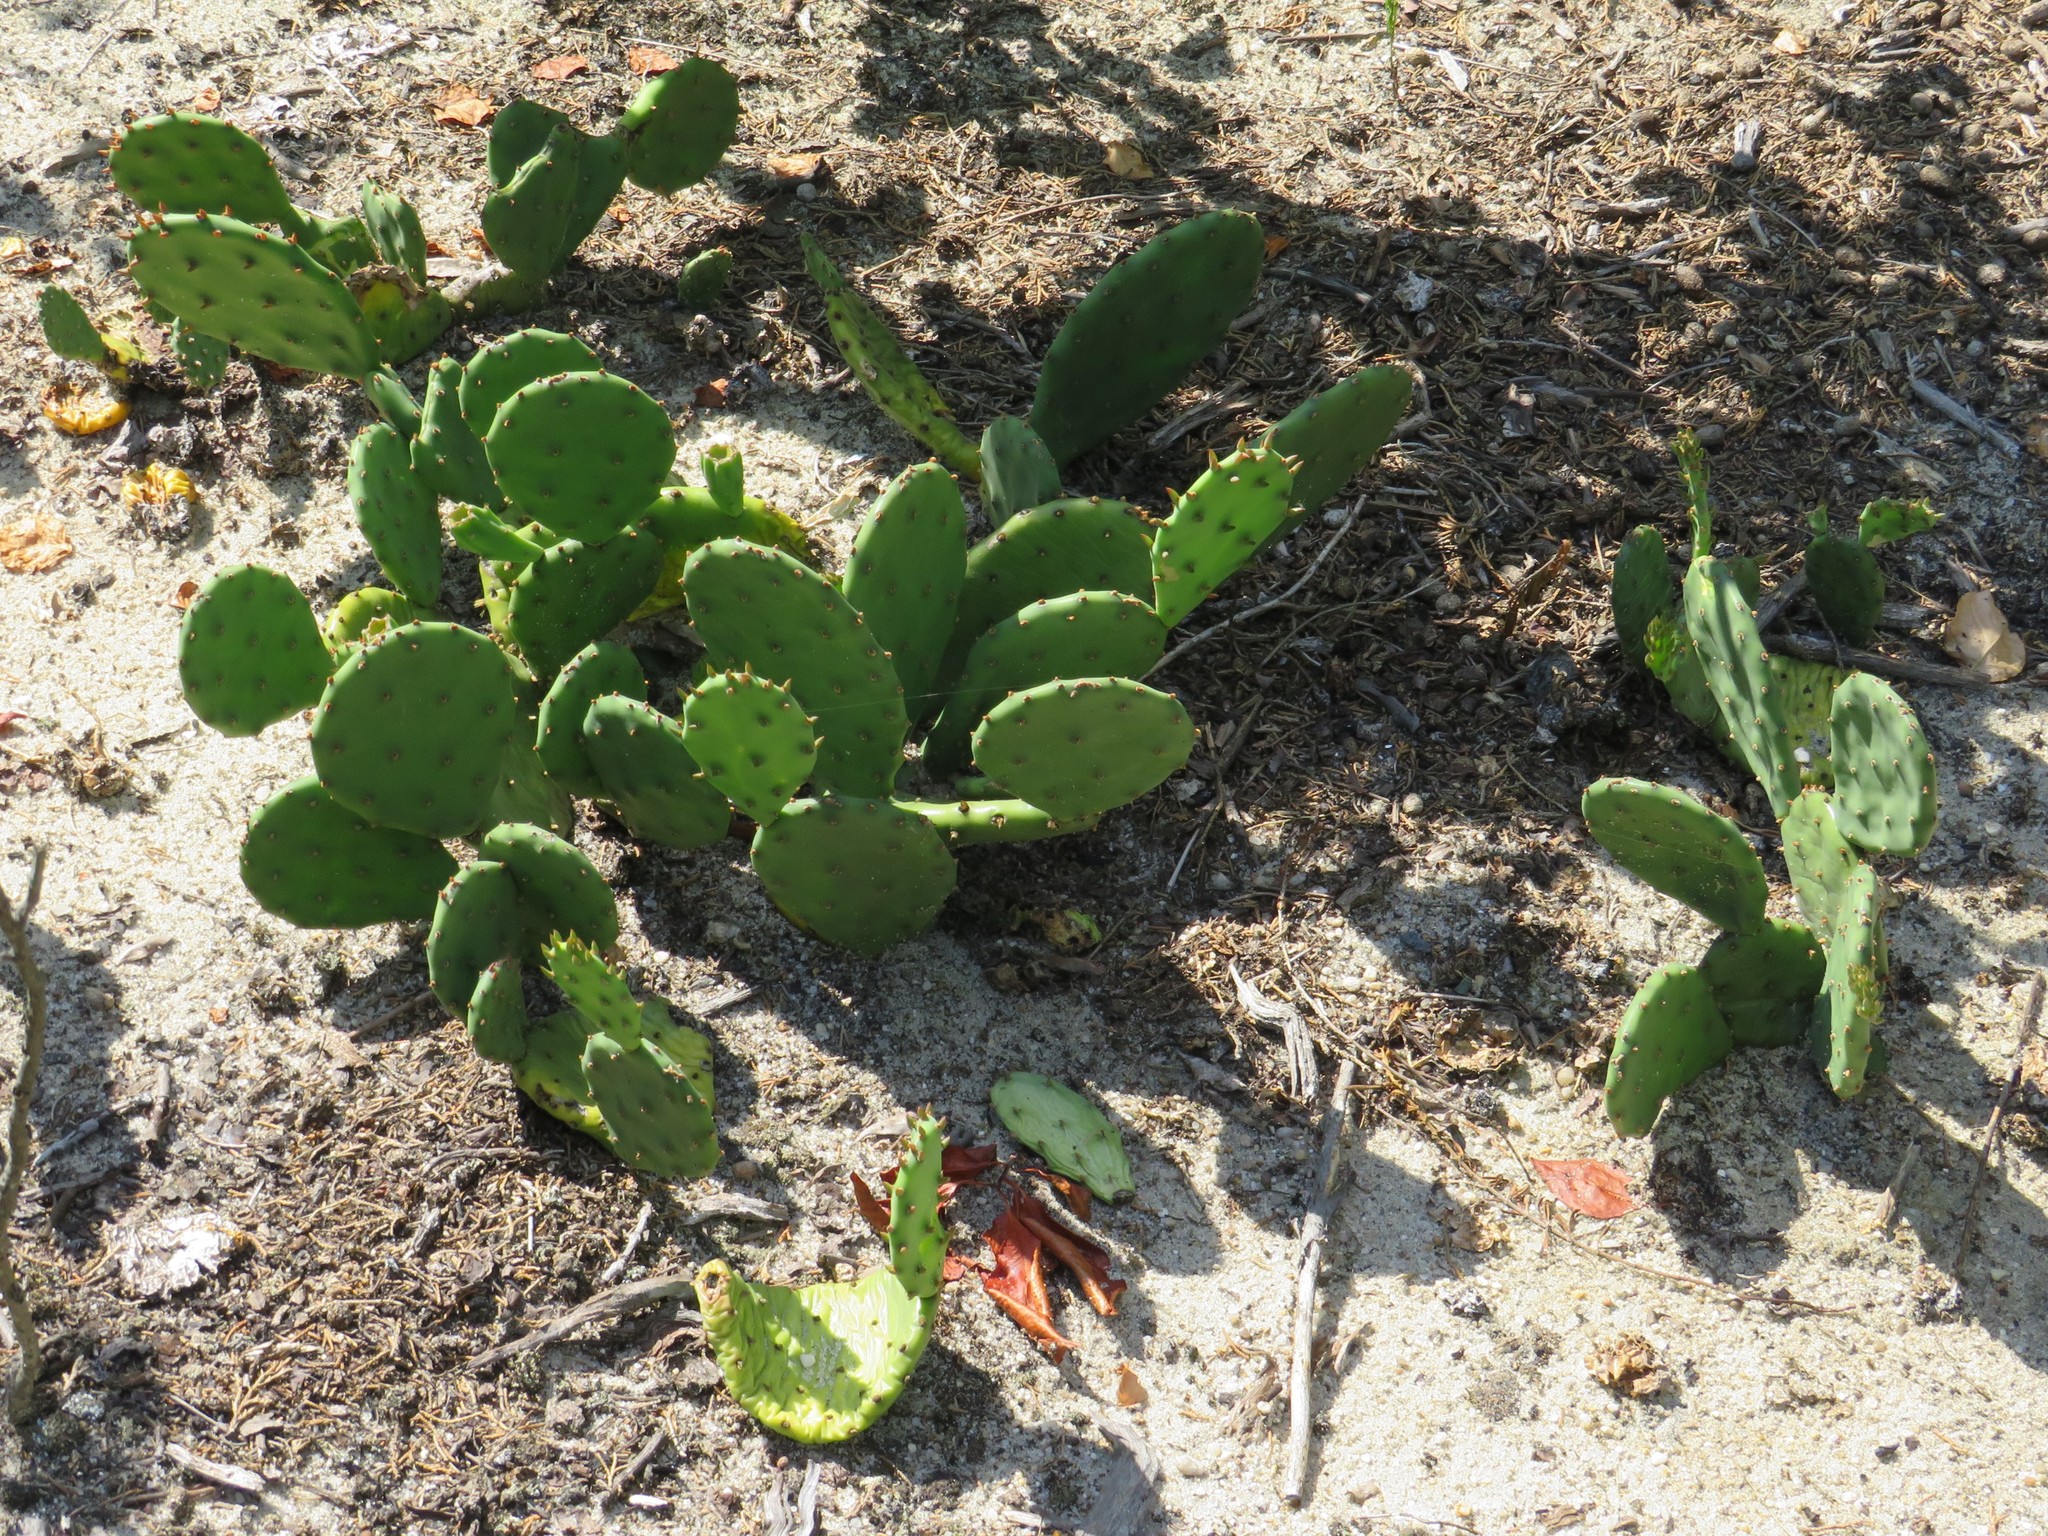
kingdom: Plantae
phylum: Tracheophyta
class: Magnoliopsida
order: Caryophyllales
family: Cactaceae
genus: Opuntia
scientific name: Opuntia humifusa
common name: Eastern prickly-pear
